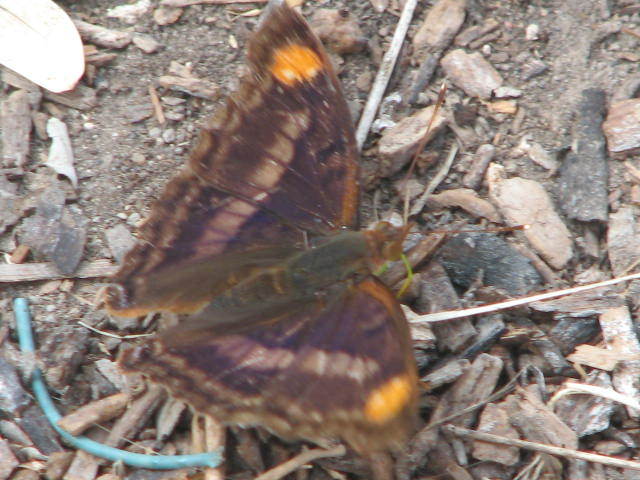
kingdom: Animalia
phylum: Arthropoda
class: Insecta
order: Lepidoptera
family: Nymphalidae
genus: Doxocopa
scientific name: Doxocopa pavon
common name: Pavon emperor
